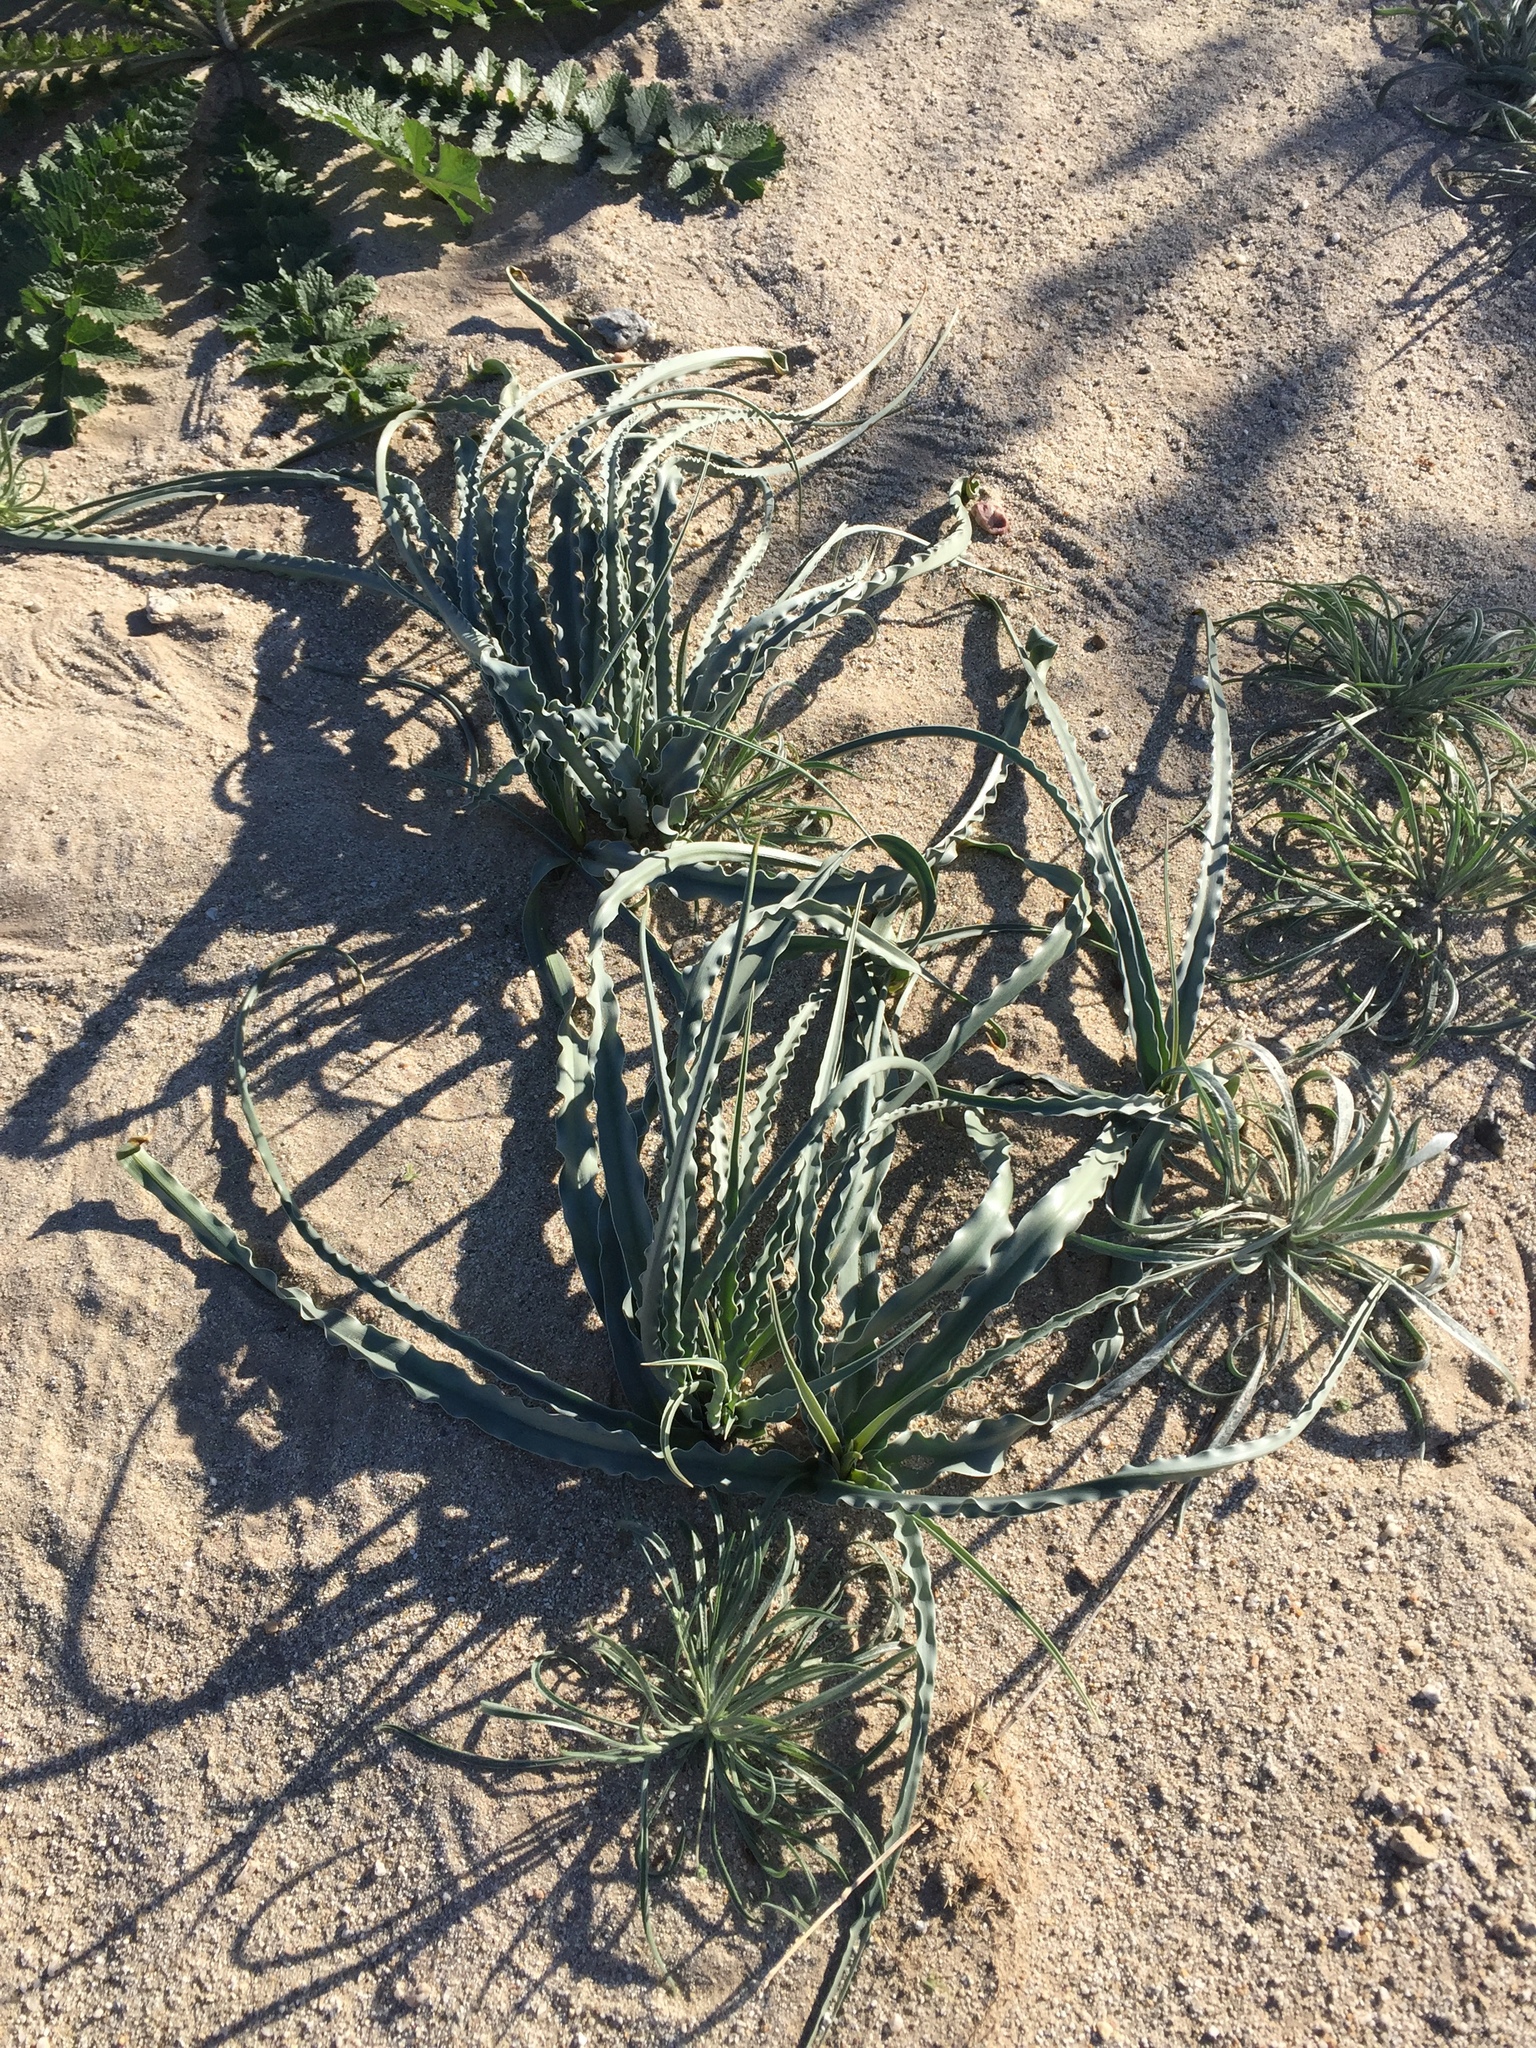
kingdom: Plantae
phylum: Tracheophyta
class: Liliopsida
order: Asparagales
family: Asparagaceae
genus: Hesperocallis
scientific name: Hesperocallis undulata
